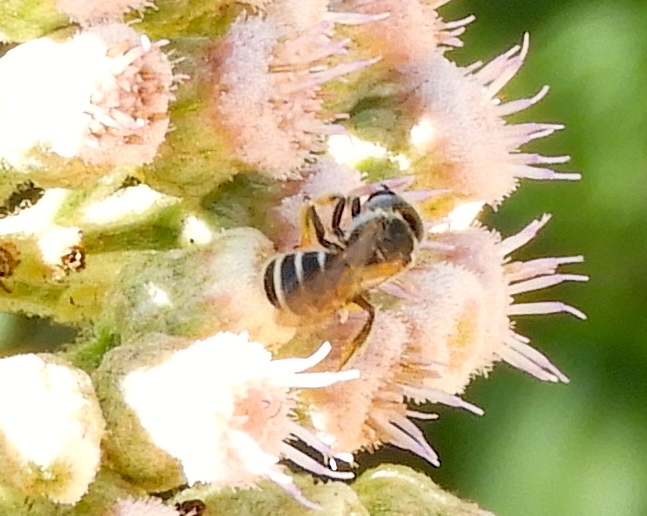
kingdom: Animalia
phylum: Arthropoda
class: Insecta
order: Hymenoptera
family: Halictidae
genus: Halictus
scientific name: Halictus ligatus
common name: Ligated furrow bee
